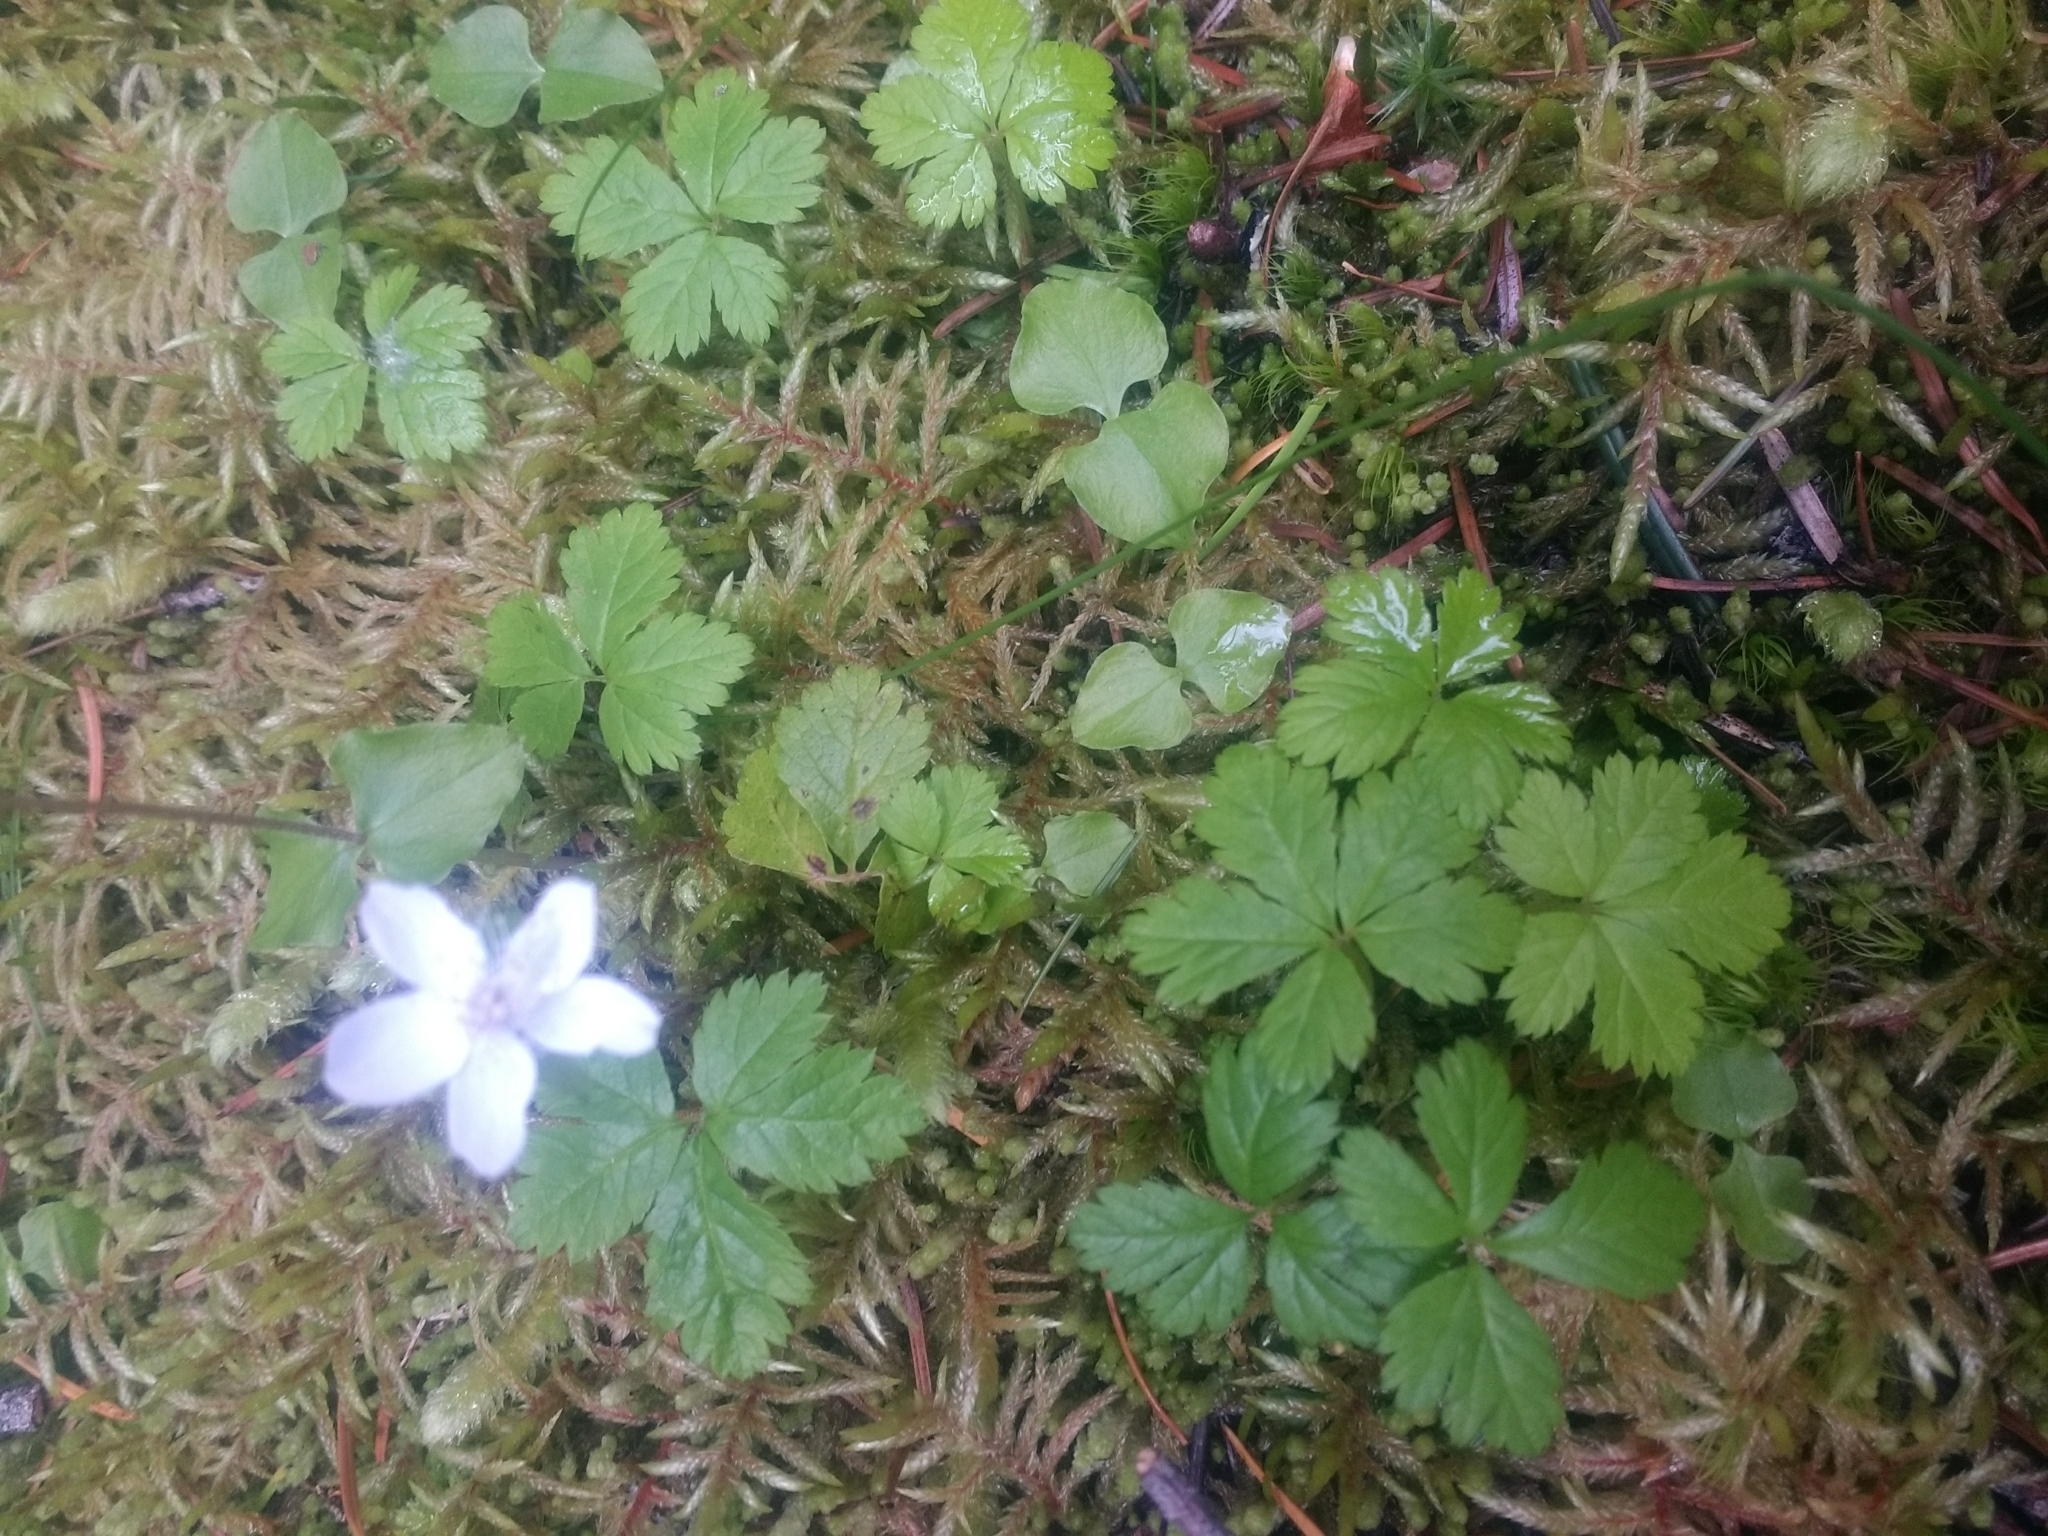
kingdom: Plantae
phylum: Tracheophyta
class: Magnoliopsida
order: Rosales
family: Rosaceae
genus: Rubus
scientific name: Rubus pedatus
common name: Creeping raspberry
